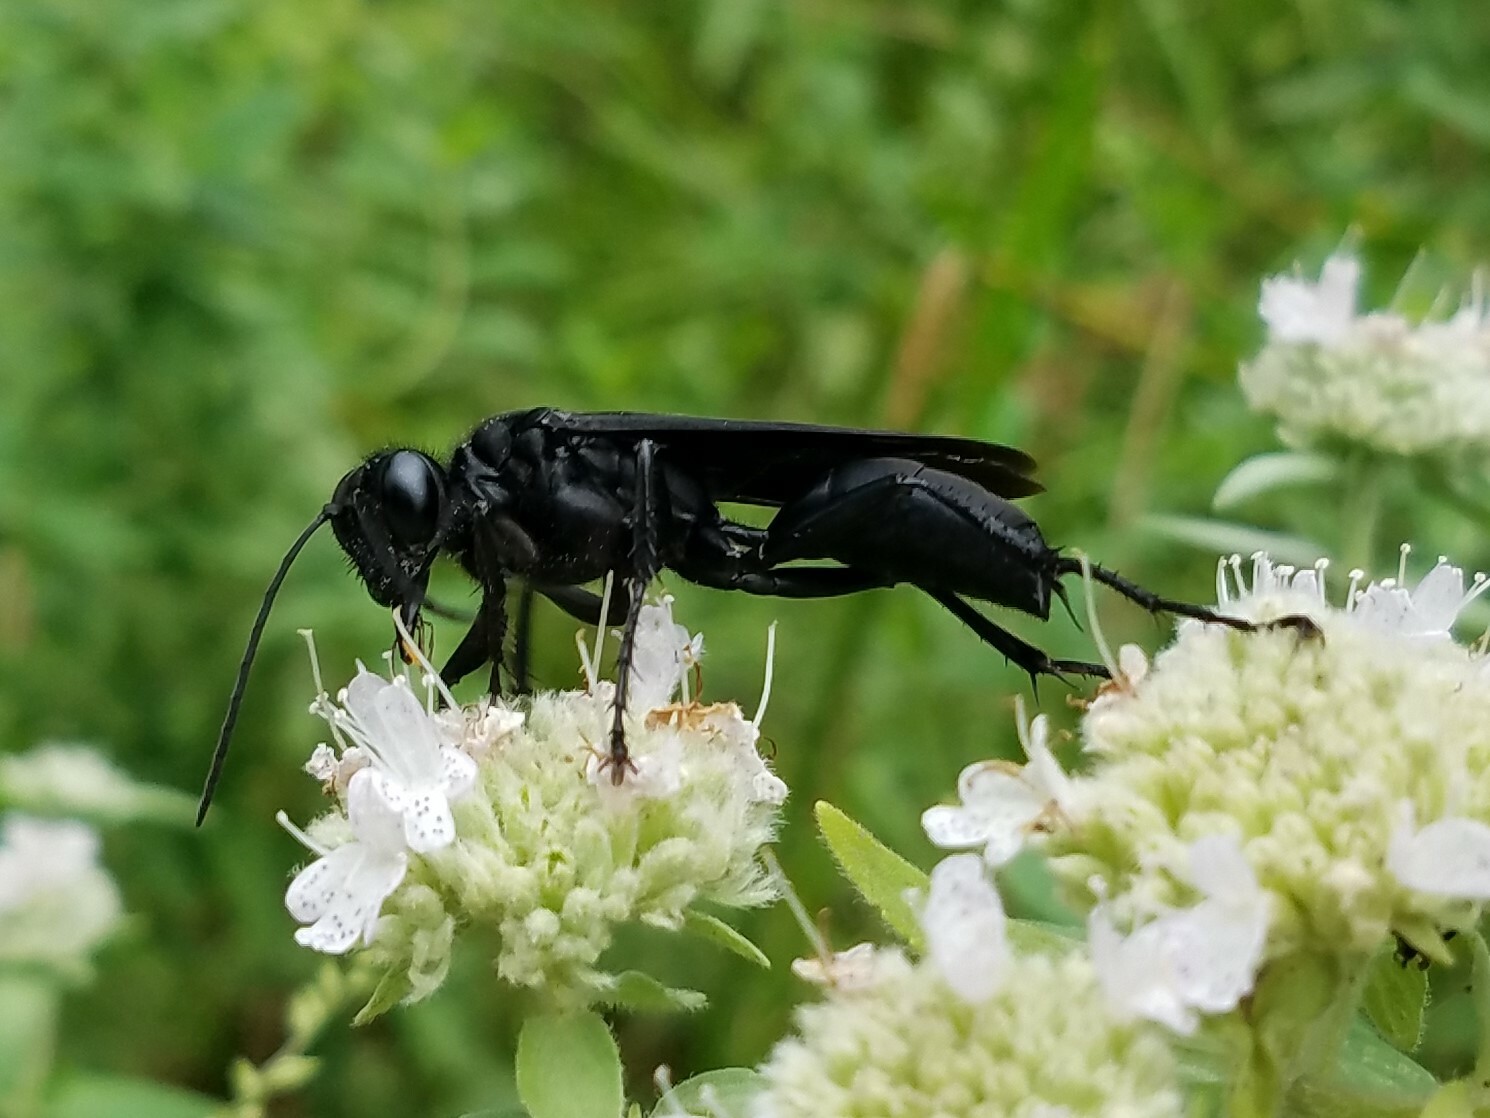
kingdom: Animalia
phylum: Arthropoda
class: Insecta
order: Hymenoptera
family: Sphecidae
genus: Sphex
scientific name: Sphex pensylvanicus
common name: Great black digger wasp
